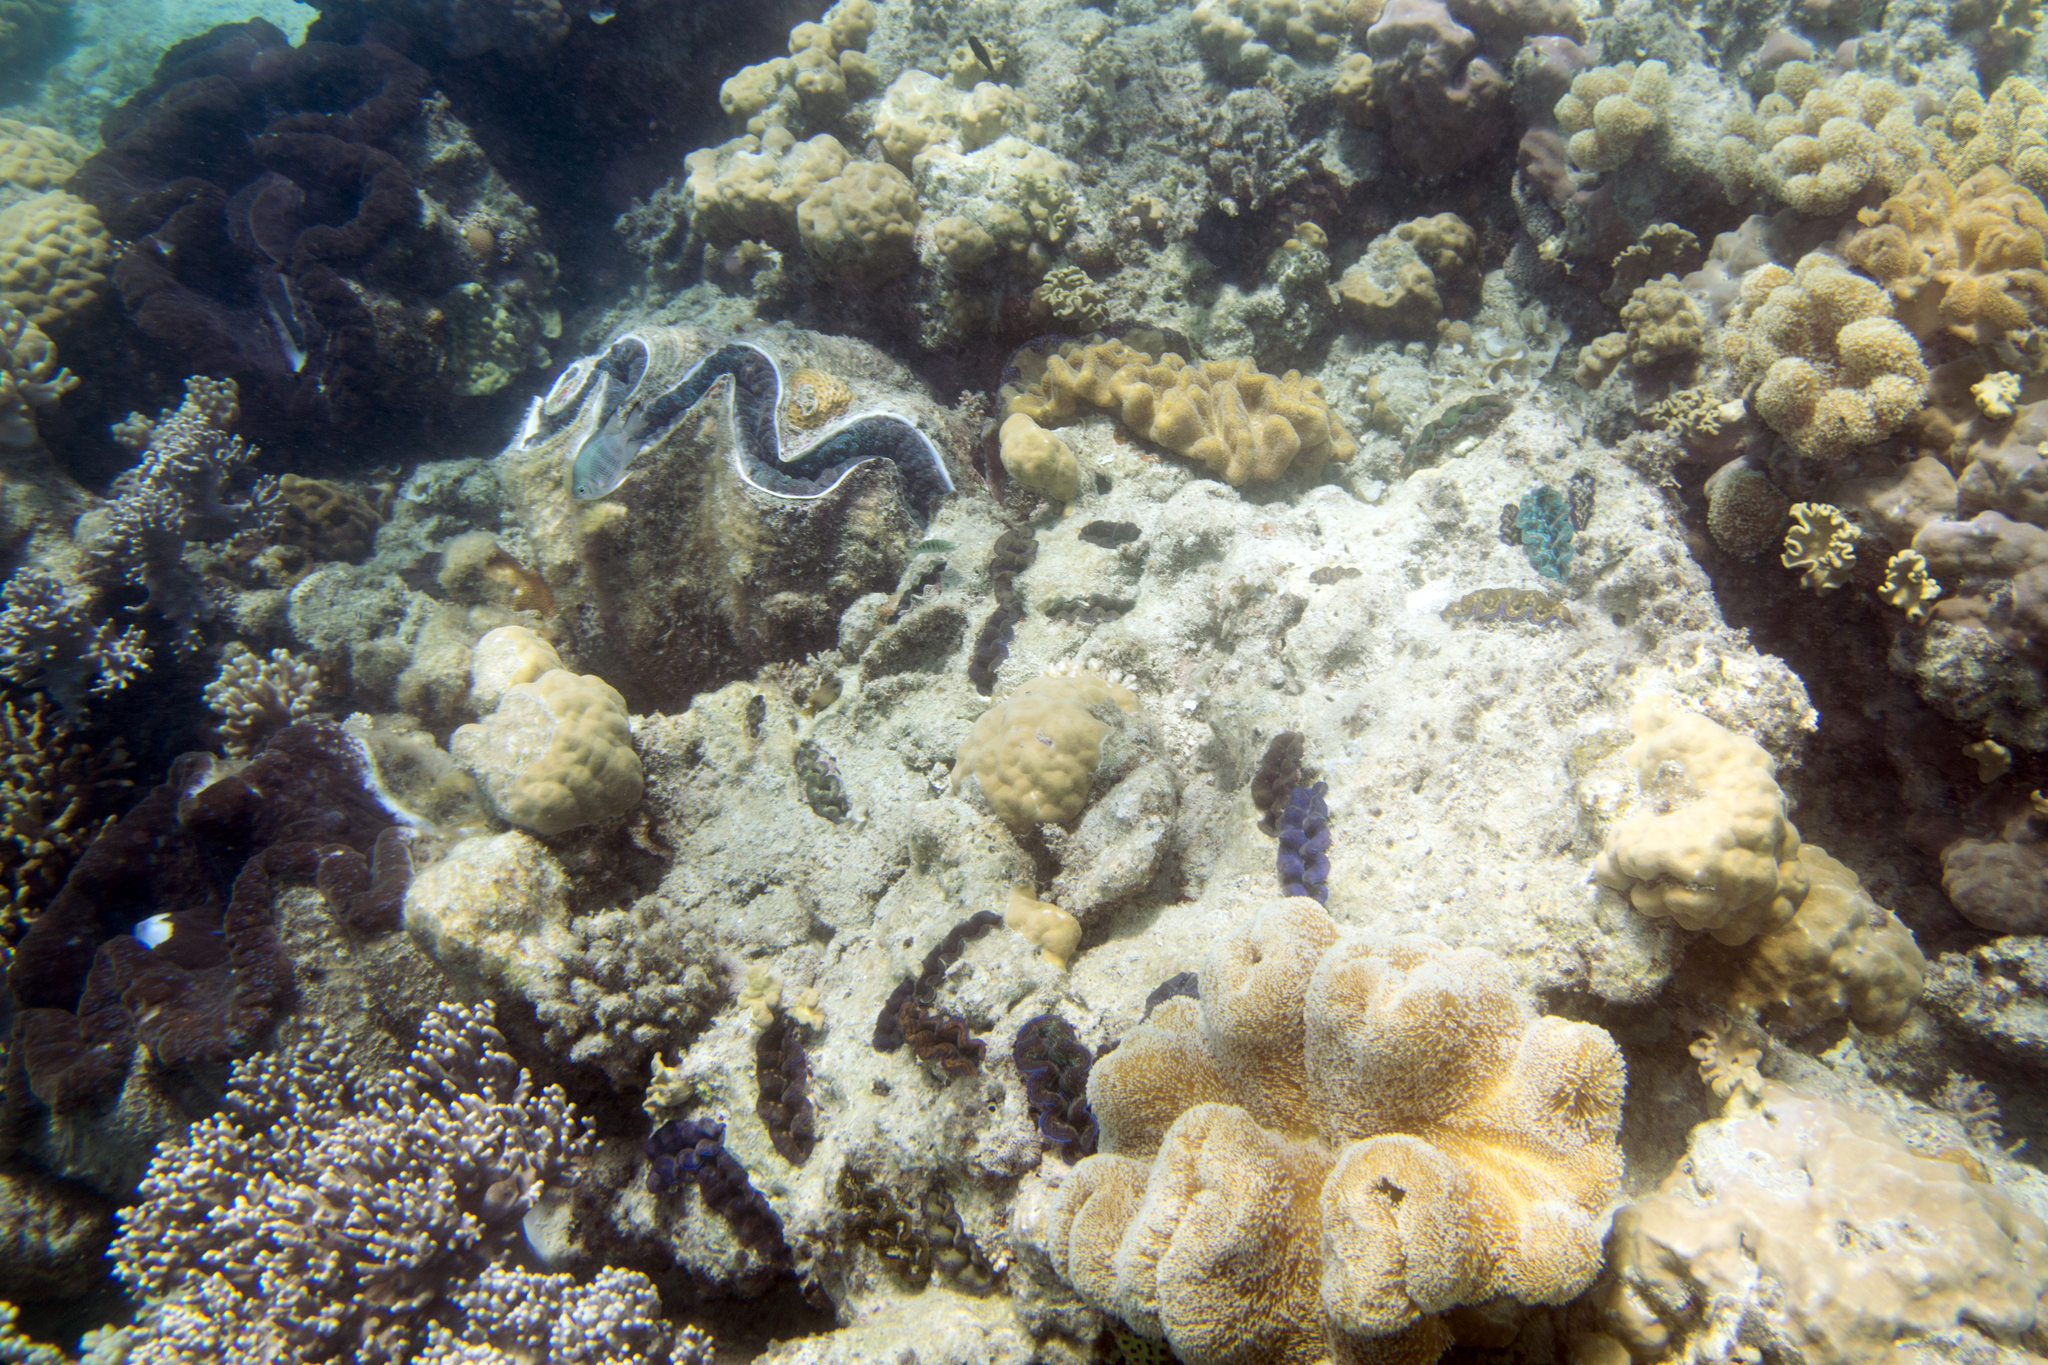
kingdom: Animalia
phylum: Mollusca
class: Bivalvia
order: Cardiida
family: Cardiidae
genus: Tridacna
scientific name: Tridacna crocea
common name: Boring clam
